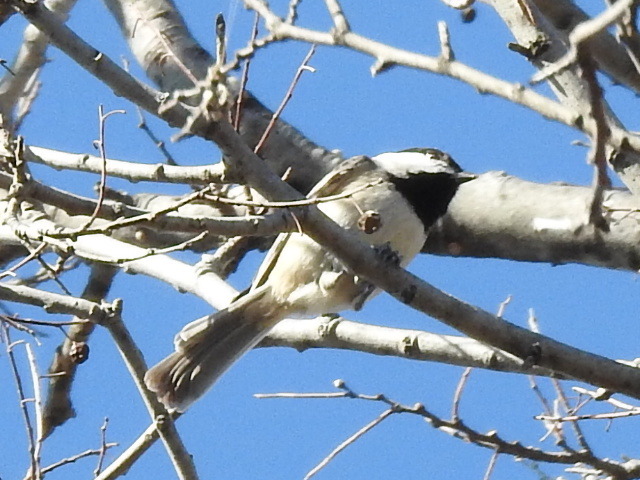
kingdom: Animalia
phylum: Chordata
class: Aves
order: Passeriformes
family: Paridae
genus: Poecile
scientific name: Poecile carolinensis
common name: Carolina chickadee
